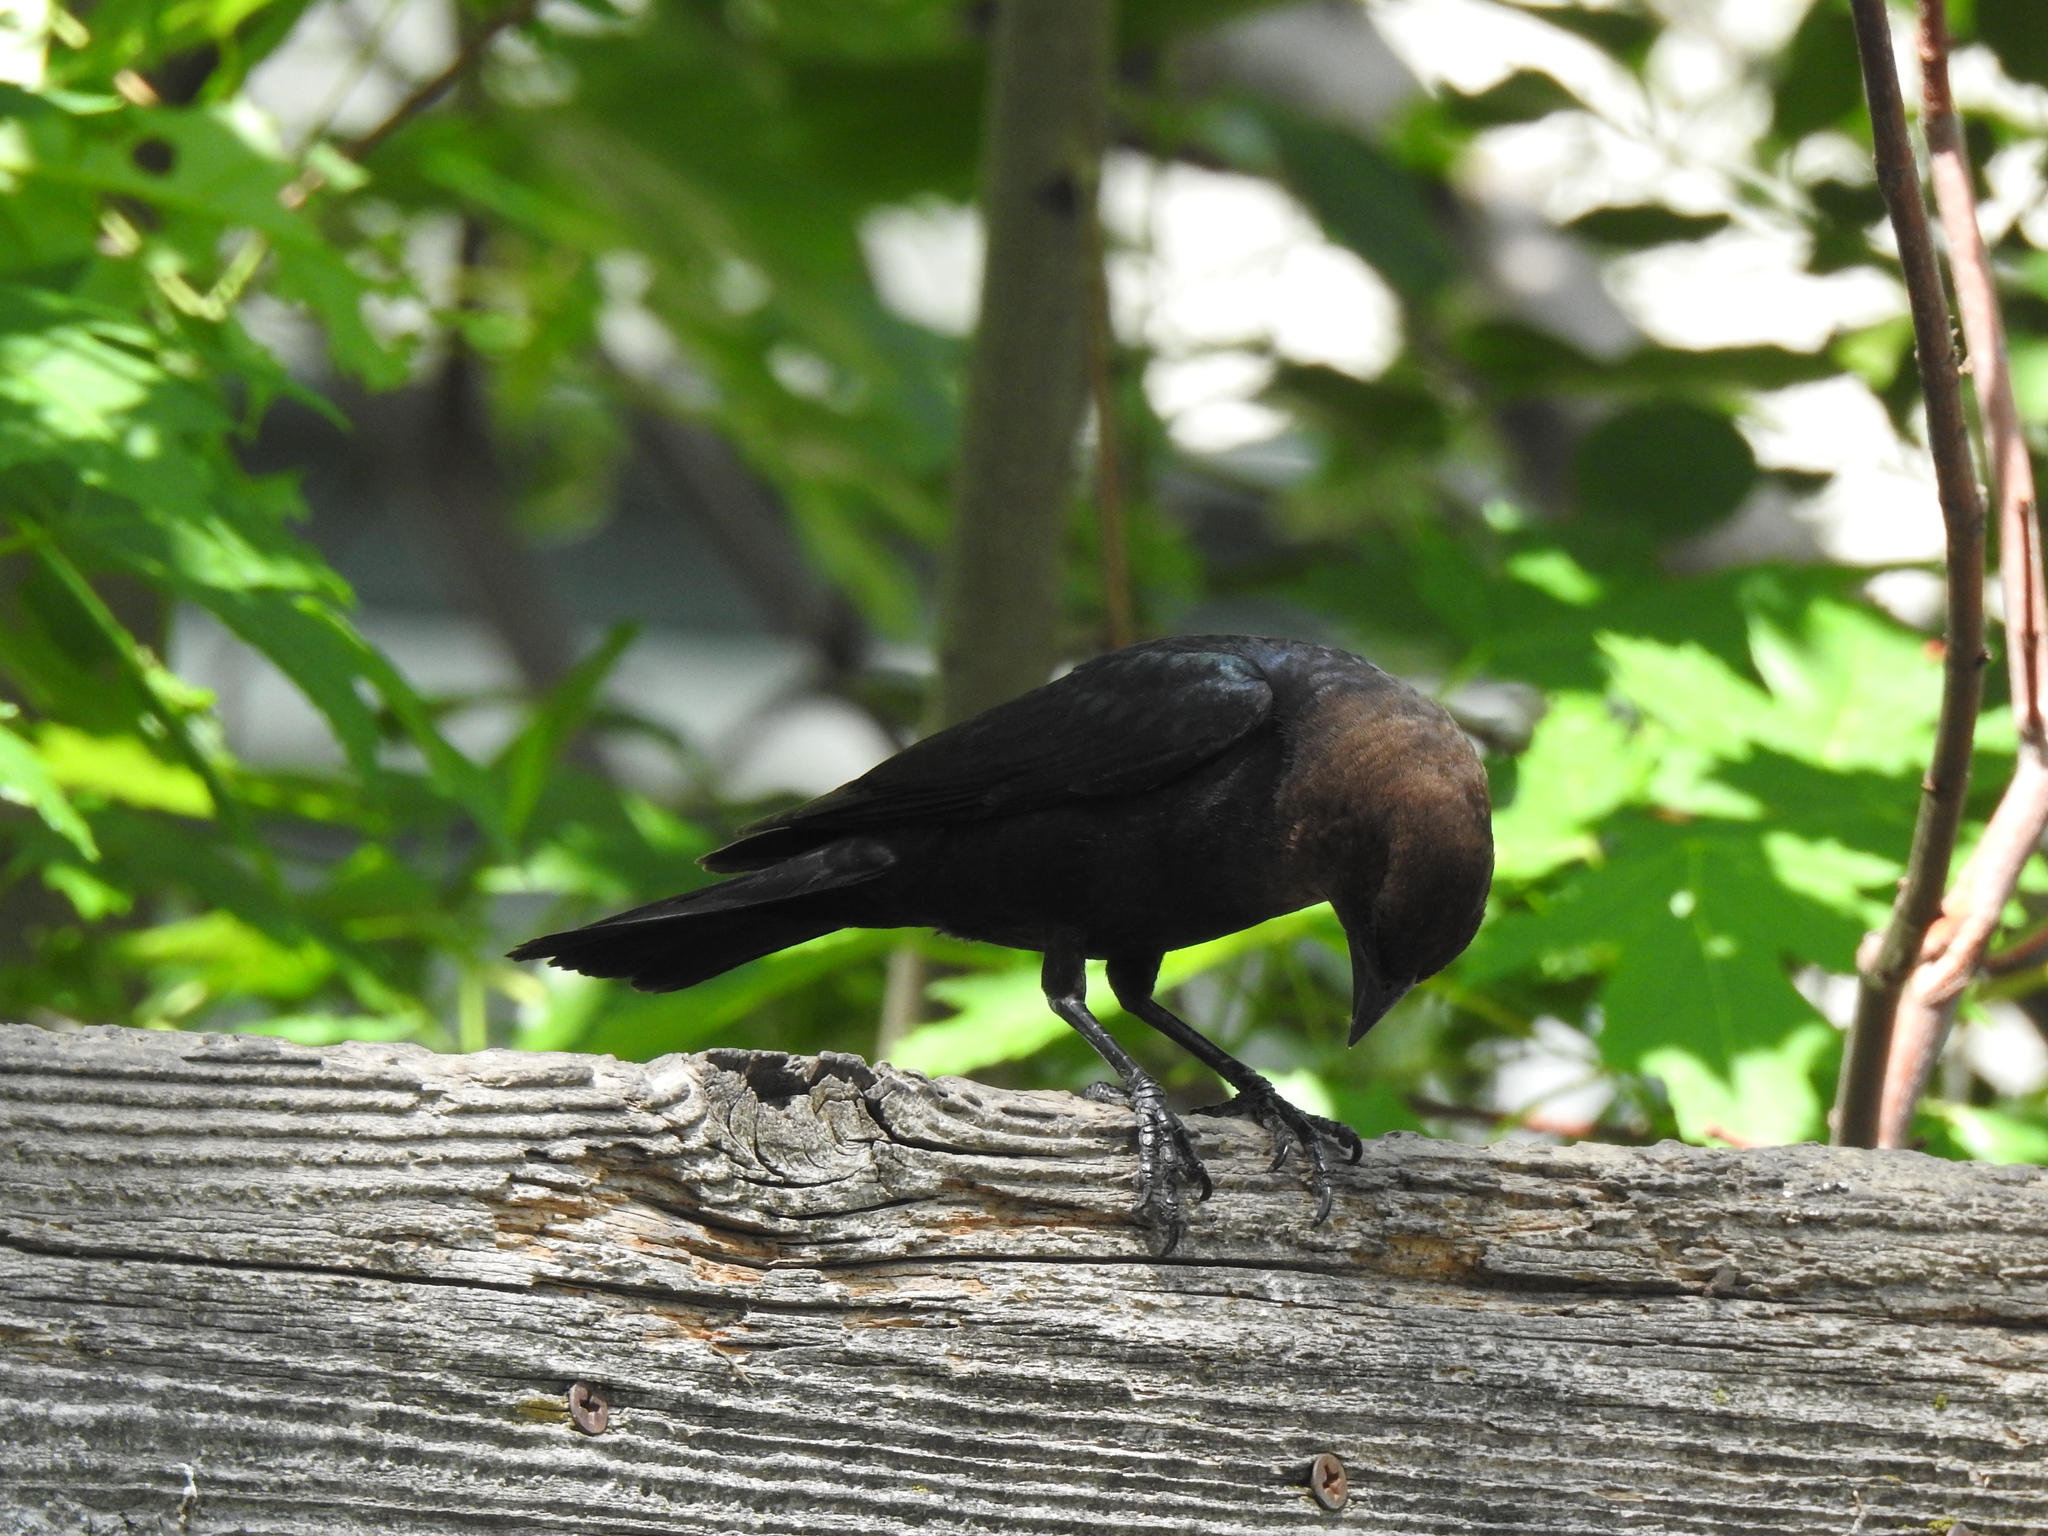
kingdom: Animalia
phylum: Chordata
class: Aves
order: Passeriformes
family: Icteridae
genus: Molothrus
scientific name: Molothrus ater
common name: Brown-headed cowbird
